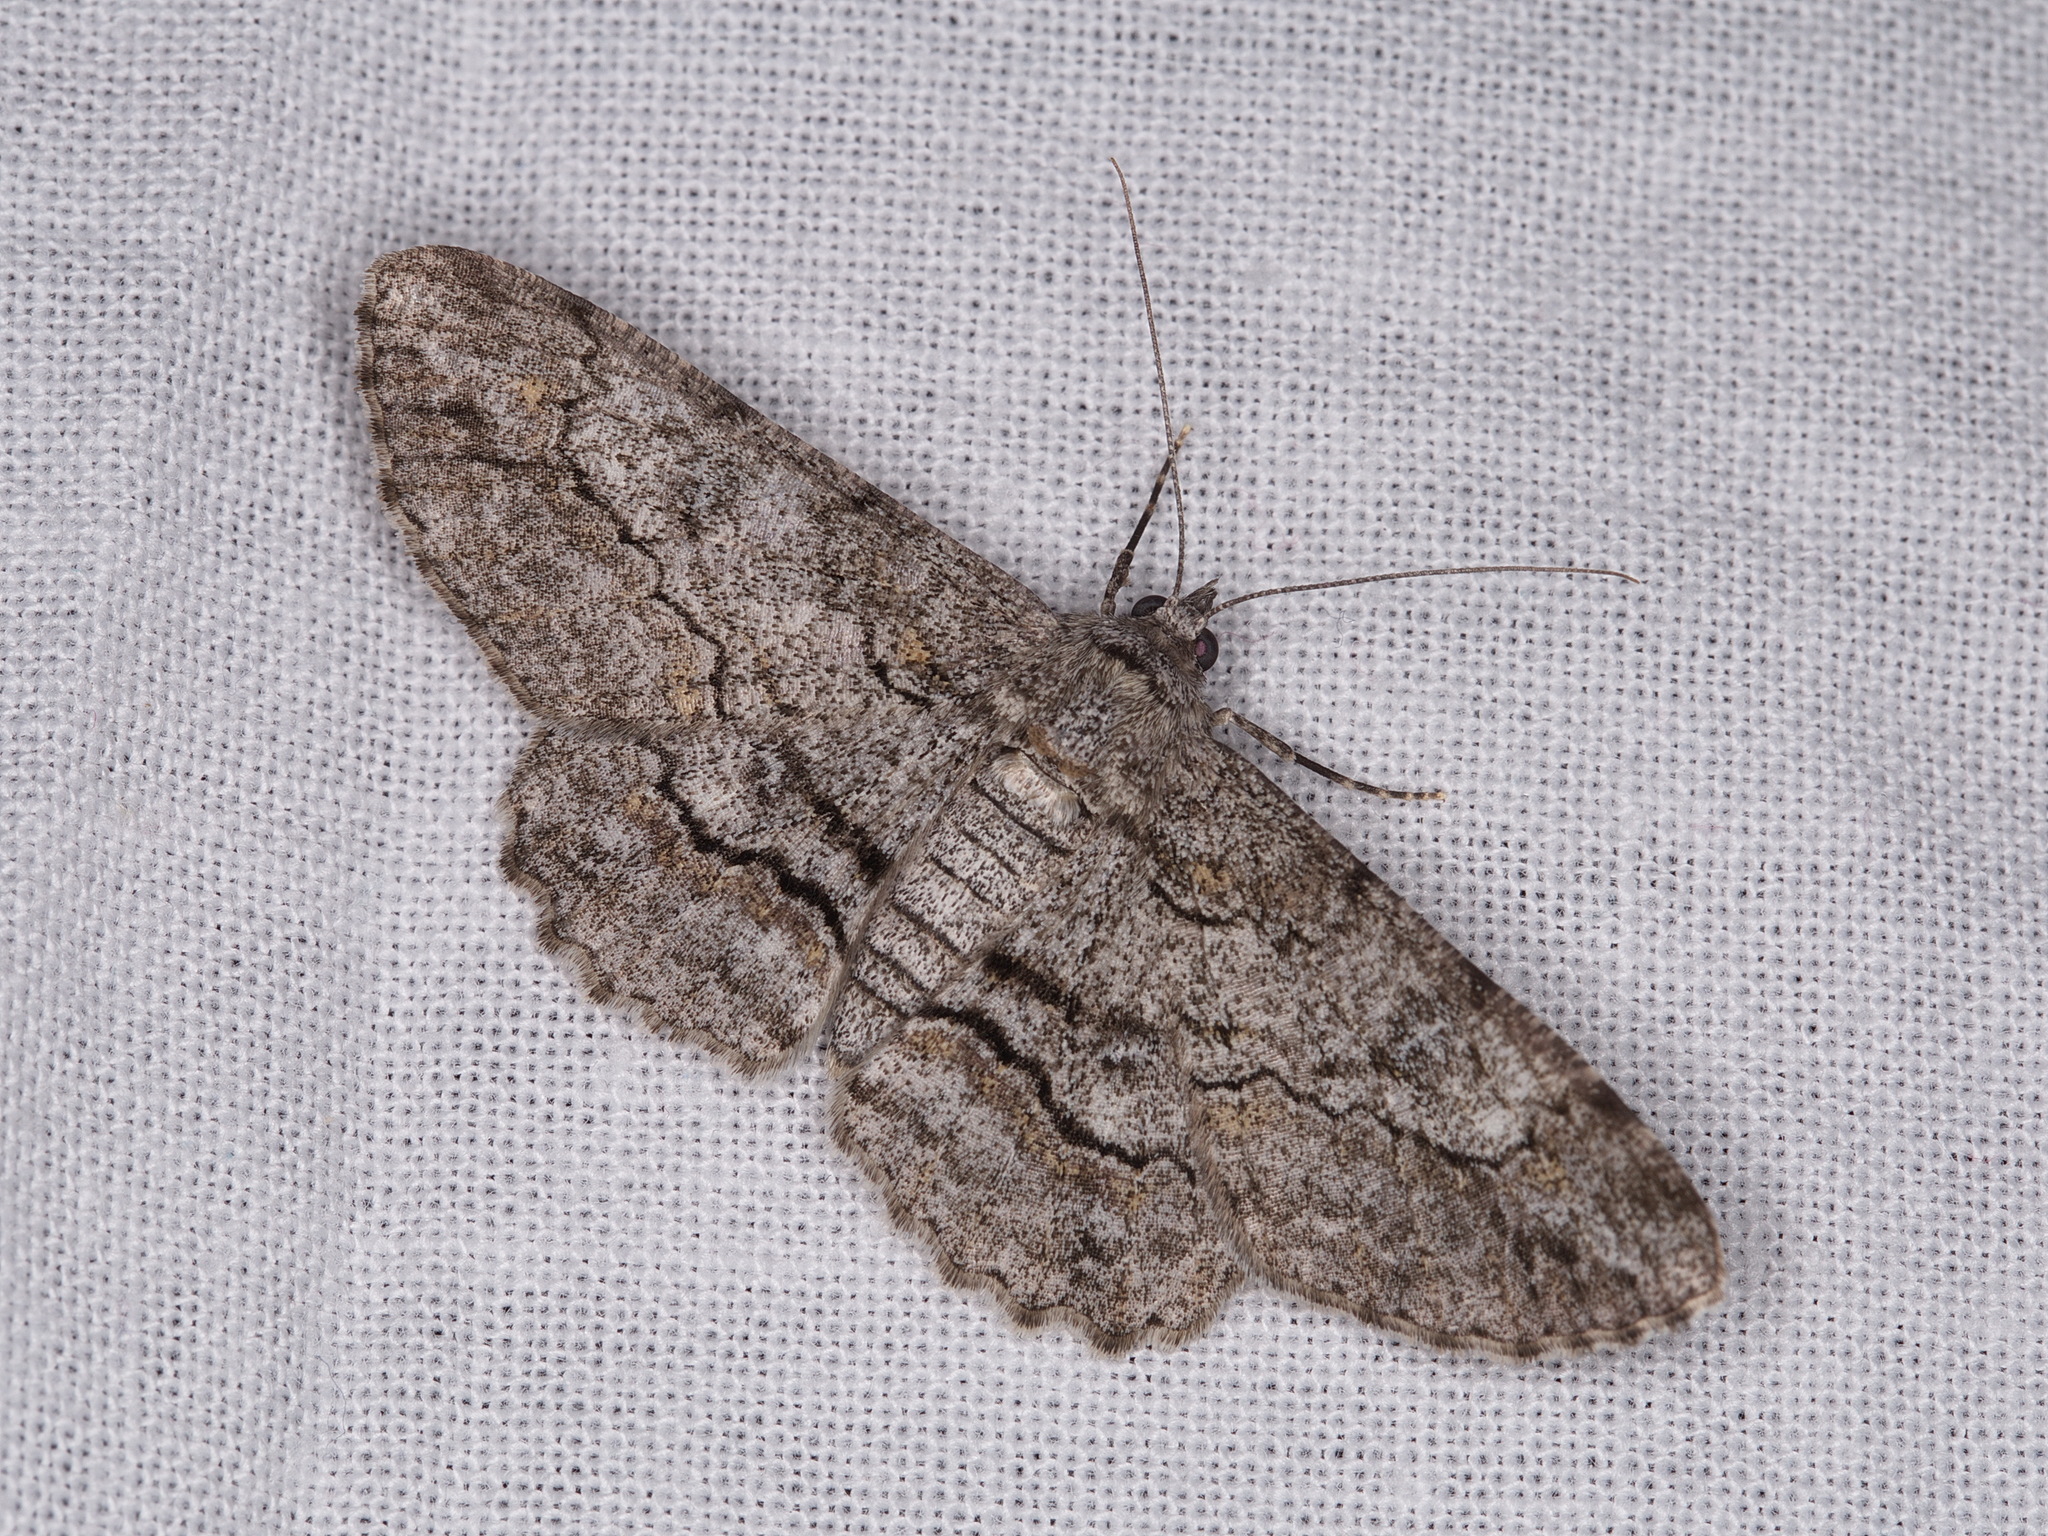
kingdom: Animalia
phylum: Arthropoda
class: Insecta
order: Lepidoptera
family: Geometridae
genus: Cleora
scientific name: Cleora injectaria
